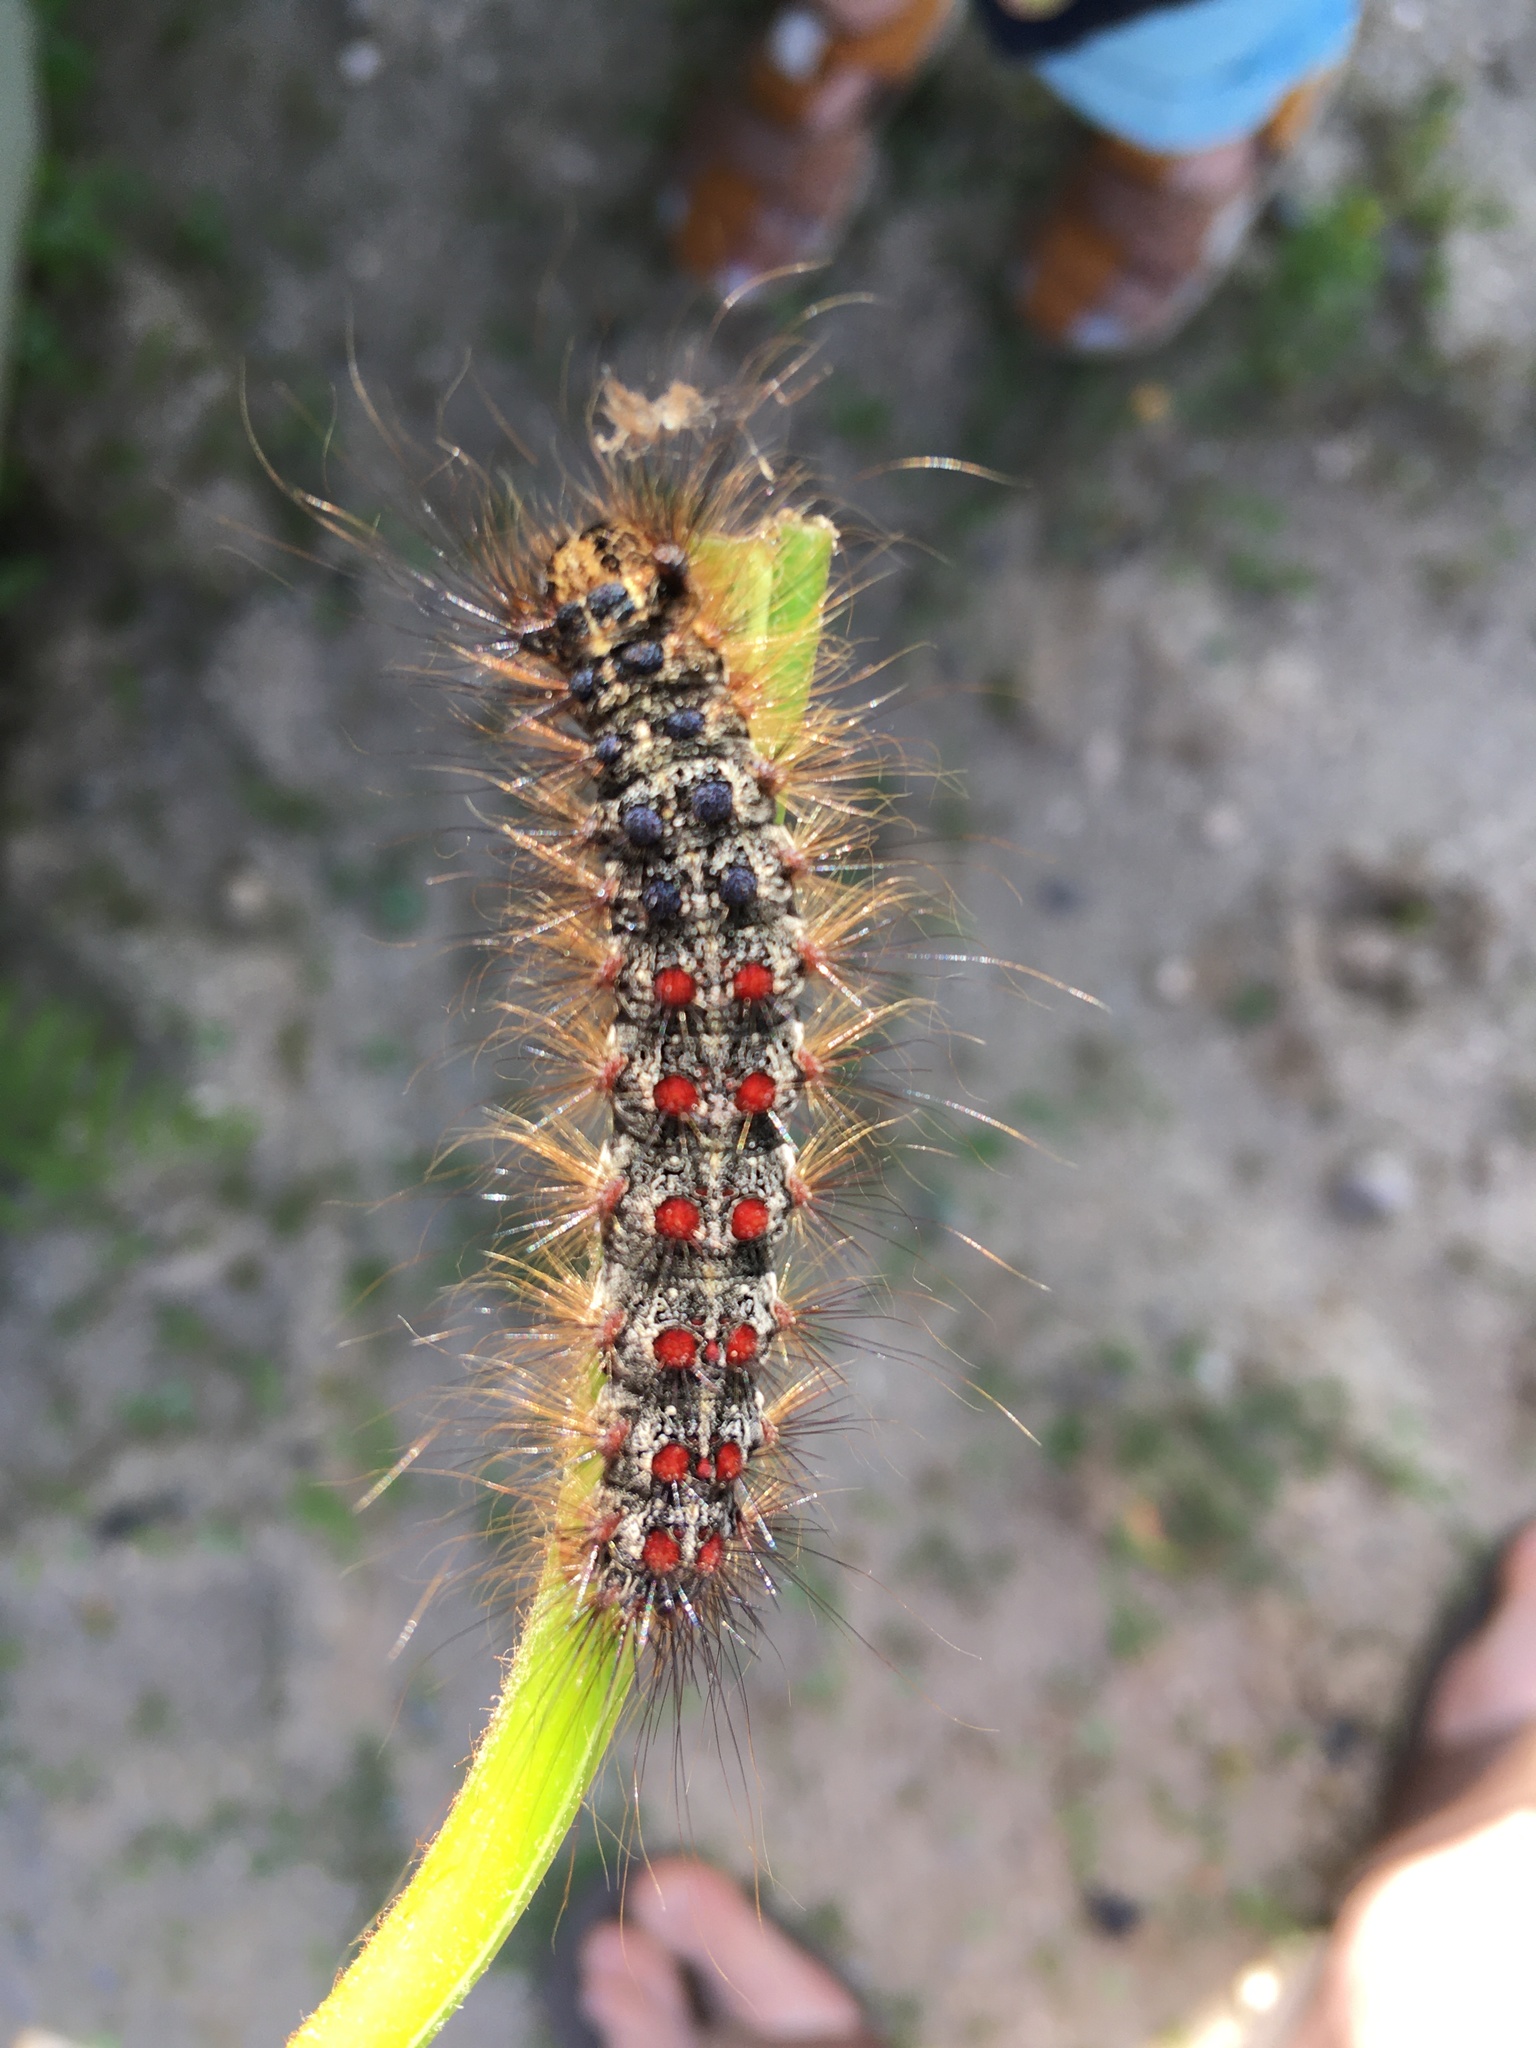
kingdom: Animalia
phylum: Arthropoda
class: Insecta
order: Lepidoptera
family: Erebidae
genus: Lymantria
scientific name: Lymantria dispar
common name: Gypsy moth
